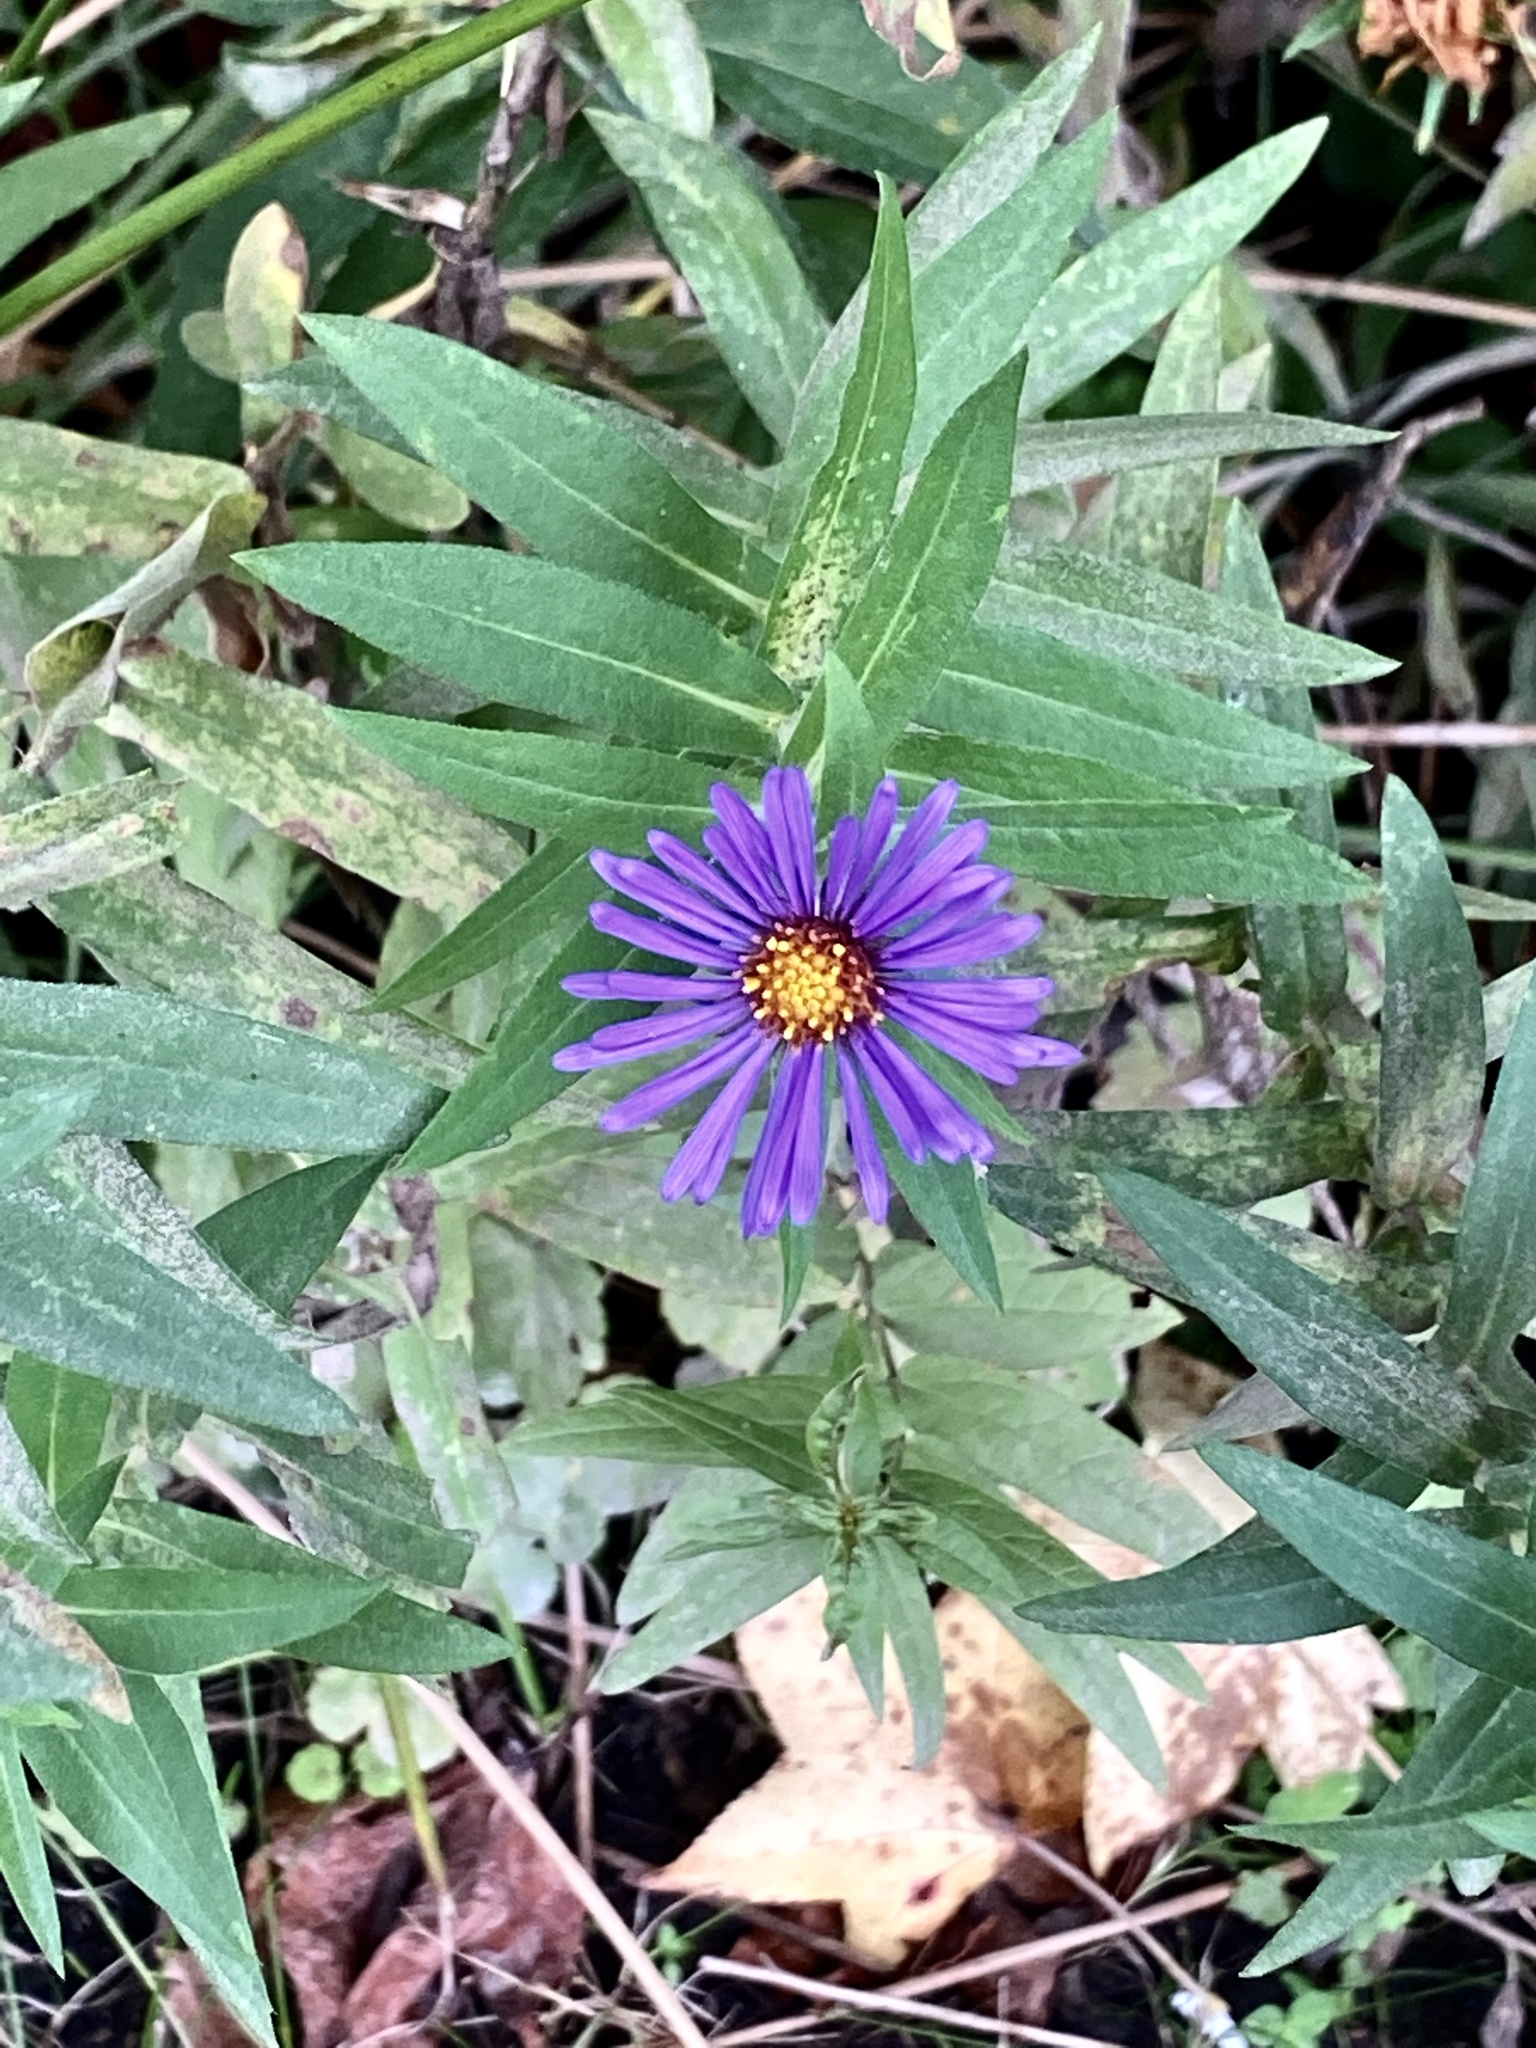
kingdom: Plantae
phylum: Tracheophyta
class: Magnoliopsida
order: Asterales
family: Asteraceae
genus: Symphyotrichum
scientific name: Symphyotrichum novae-angliae
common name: Michaelmas daisy
